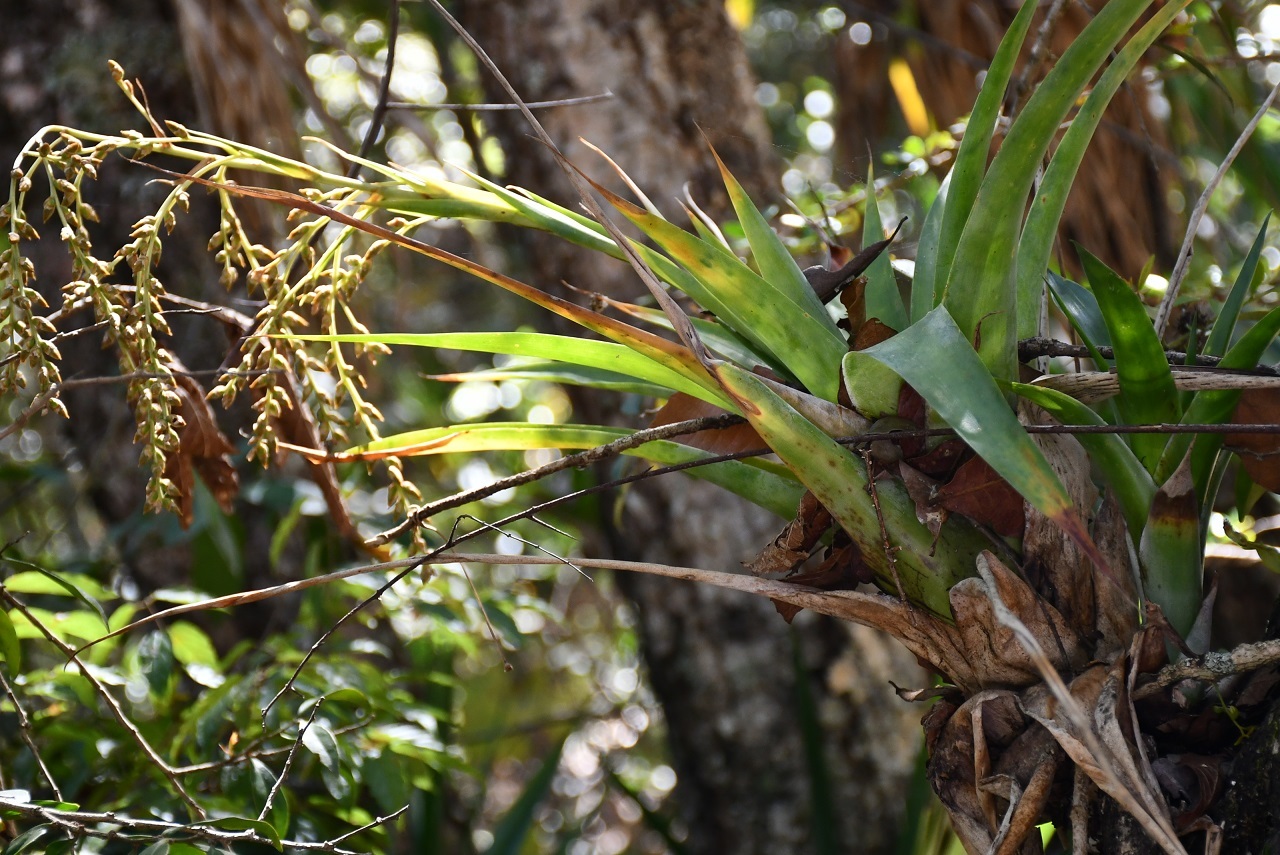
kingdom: Plantae
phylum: Tracheophyta
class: Liliopsida
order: Poales
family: Bromeliaceae
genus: Catopsis
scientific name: Catopsis paniculata
